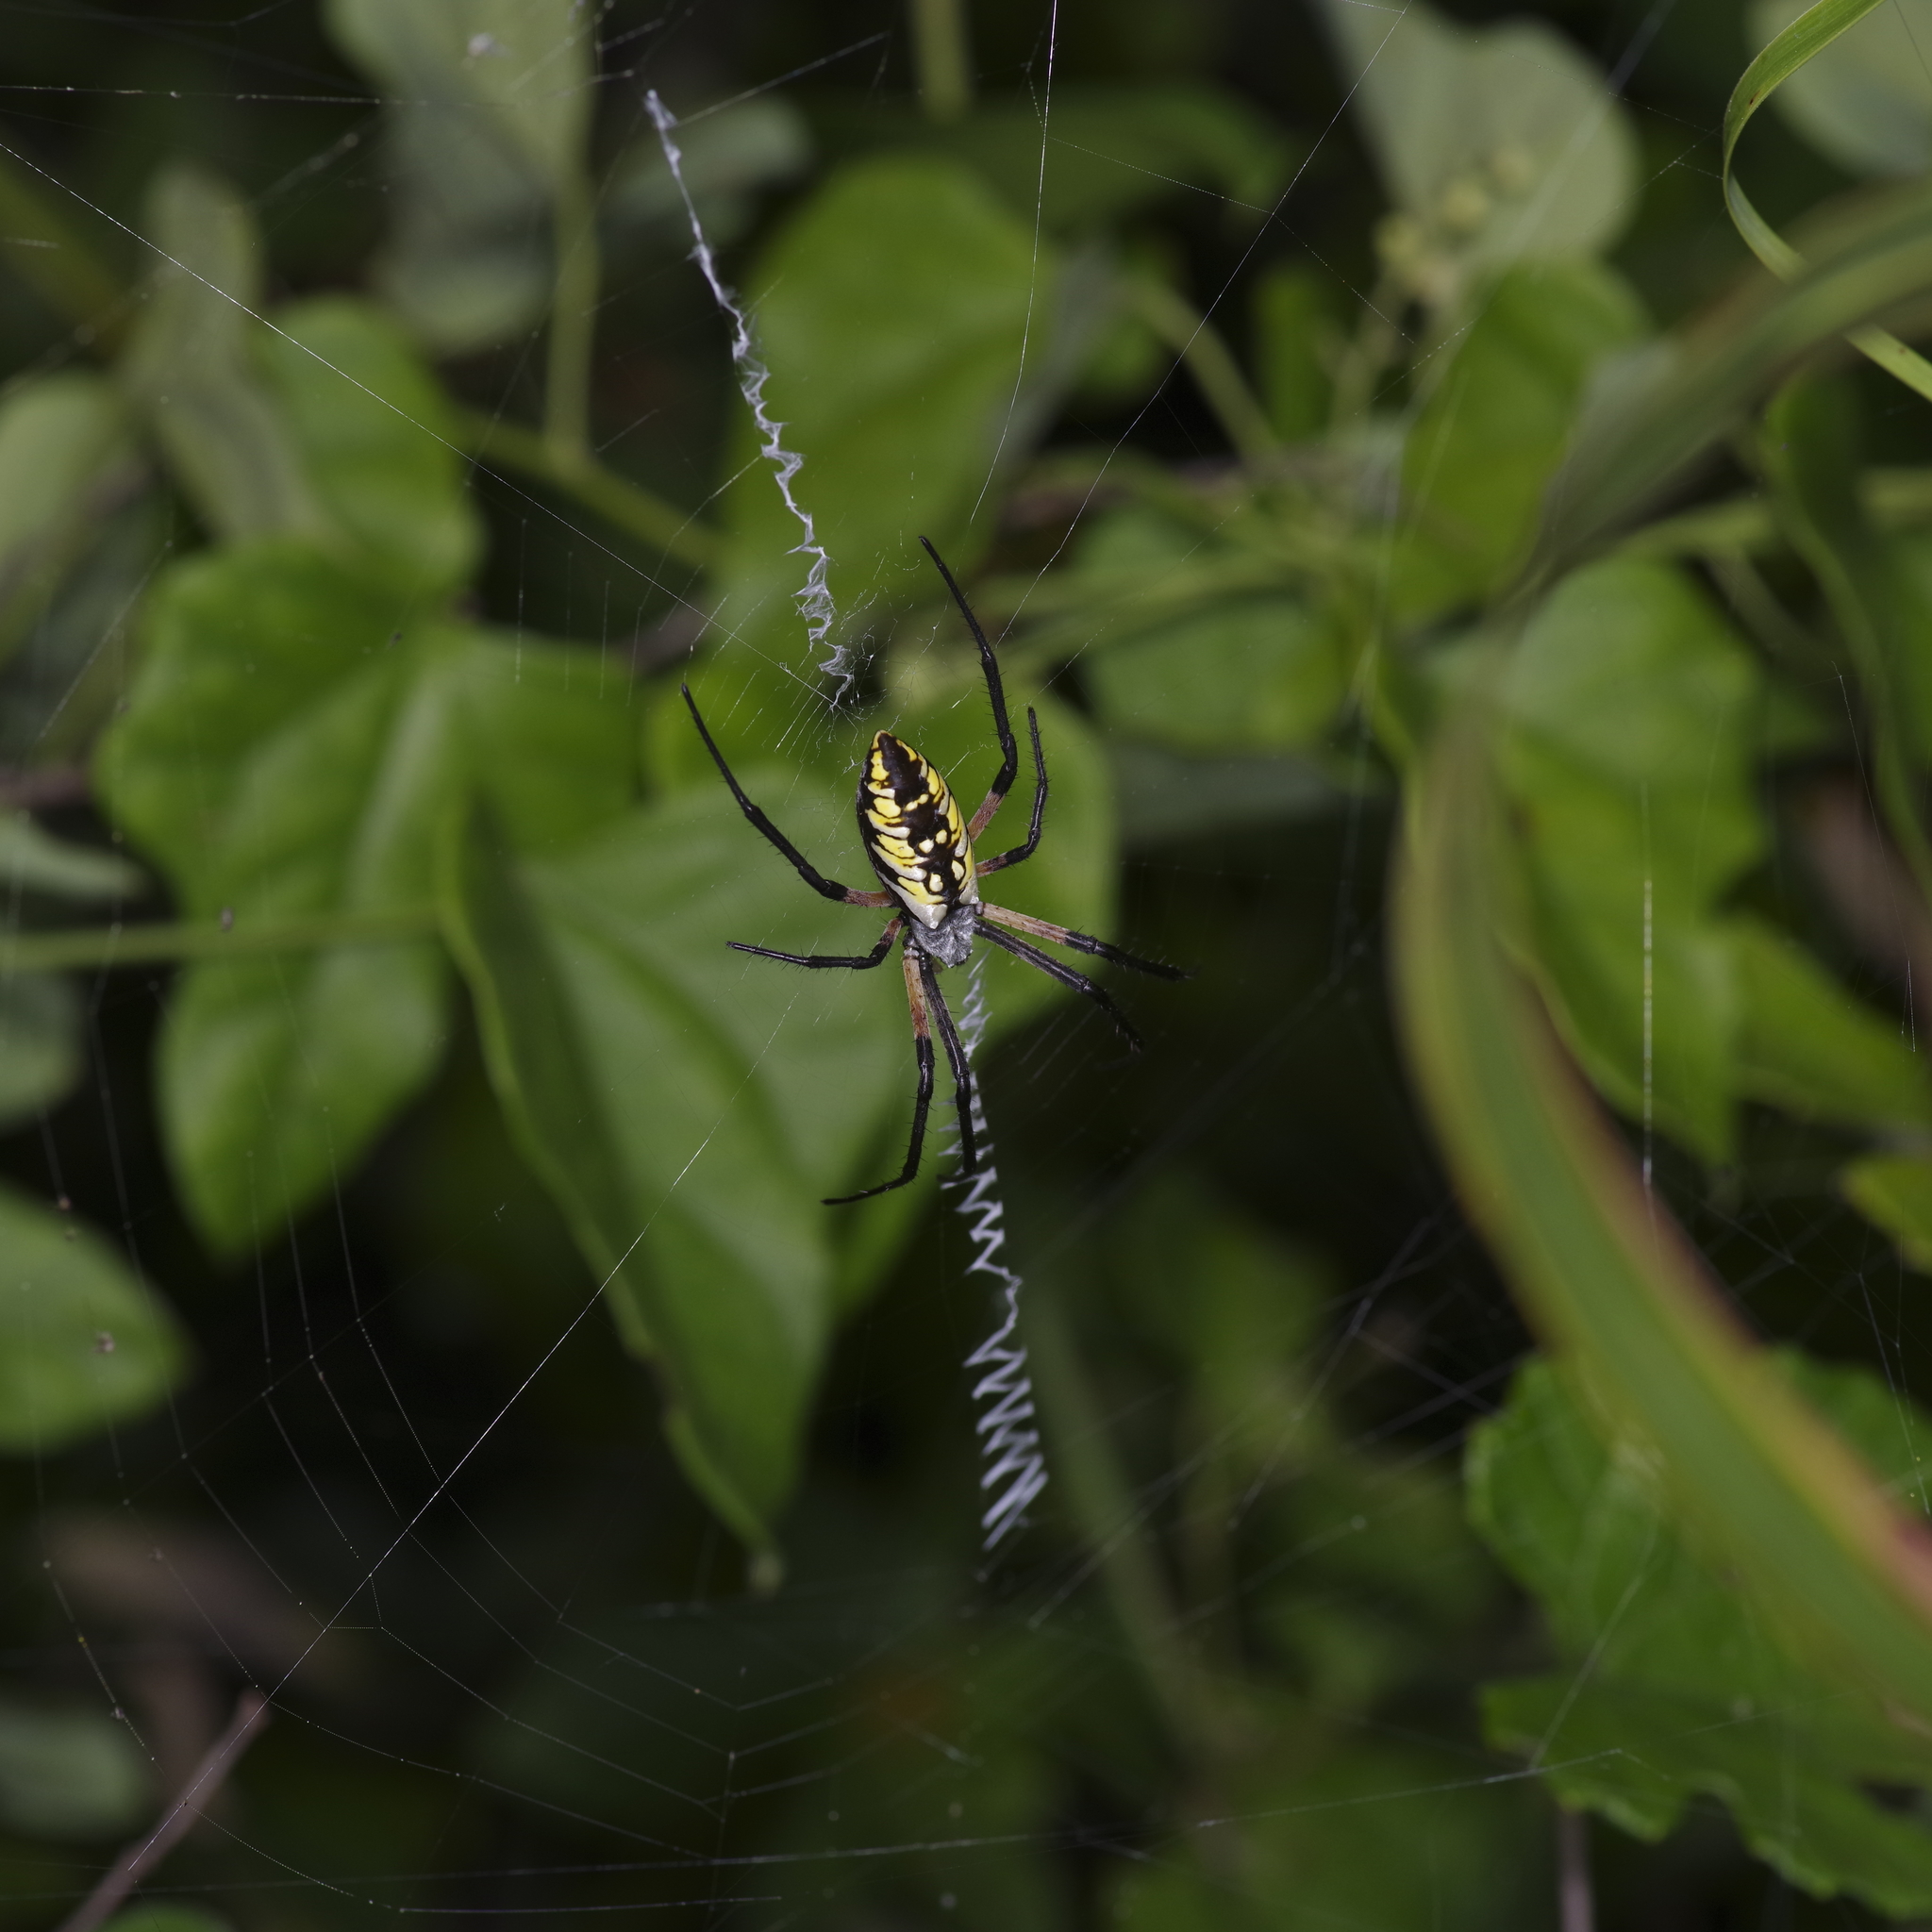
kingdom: Animalia
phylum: Arthropoda
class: Arachnida
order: Araneae
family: Araneidae
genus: Argiope
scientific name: Argiope aurantia
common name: Orb weavers
